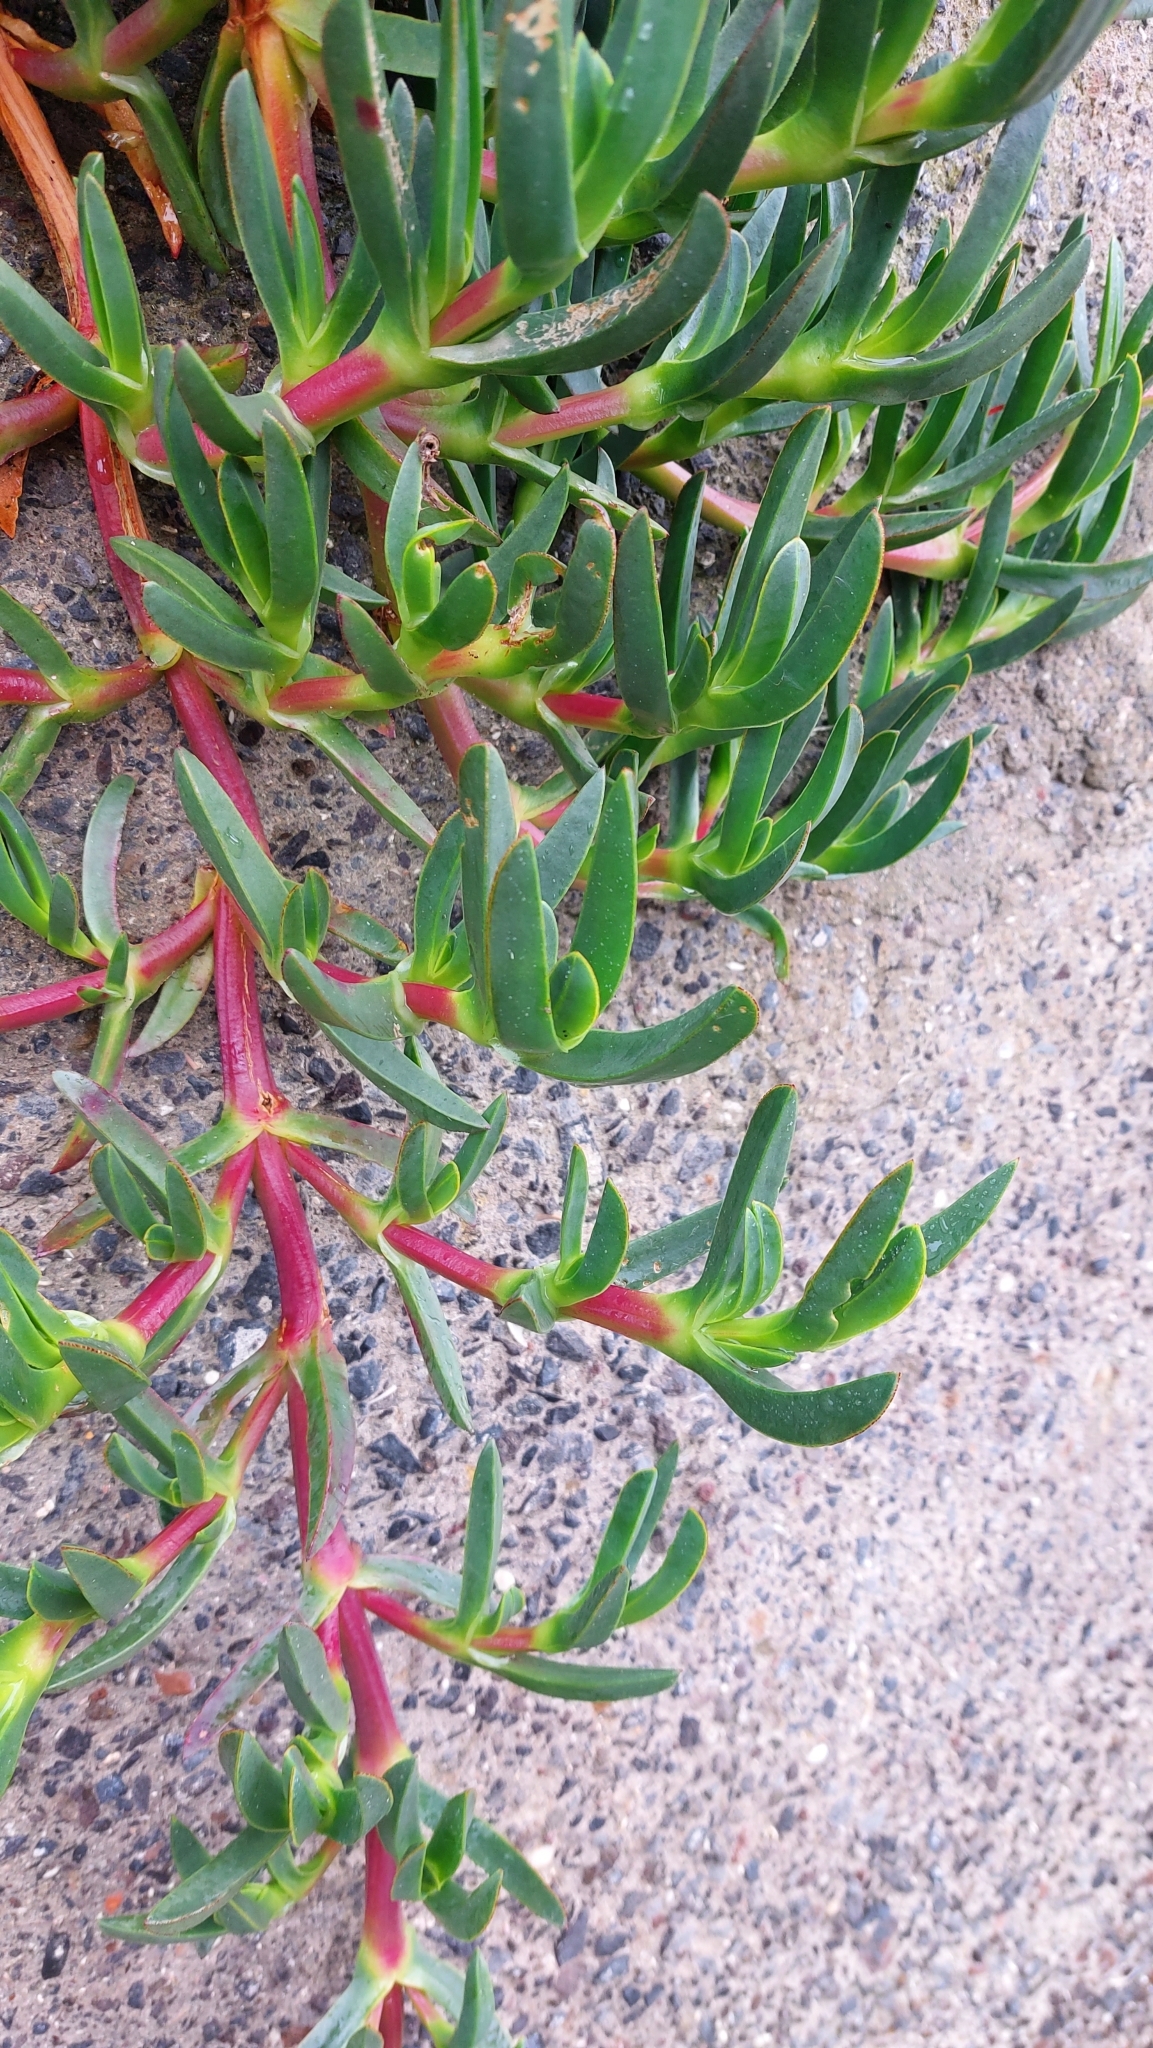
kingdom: Plantae
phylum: Tracheophyta
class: Magnoliopsida
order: Caryophyllales
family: Aizoaceae
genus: Carpobrotus
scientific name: Carpobrotus edulis
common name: Hottentot-fig
